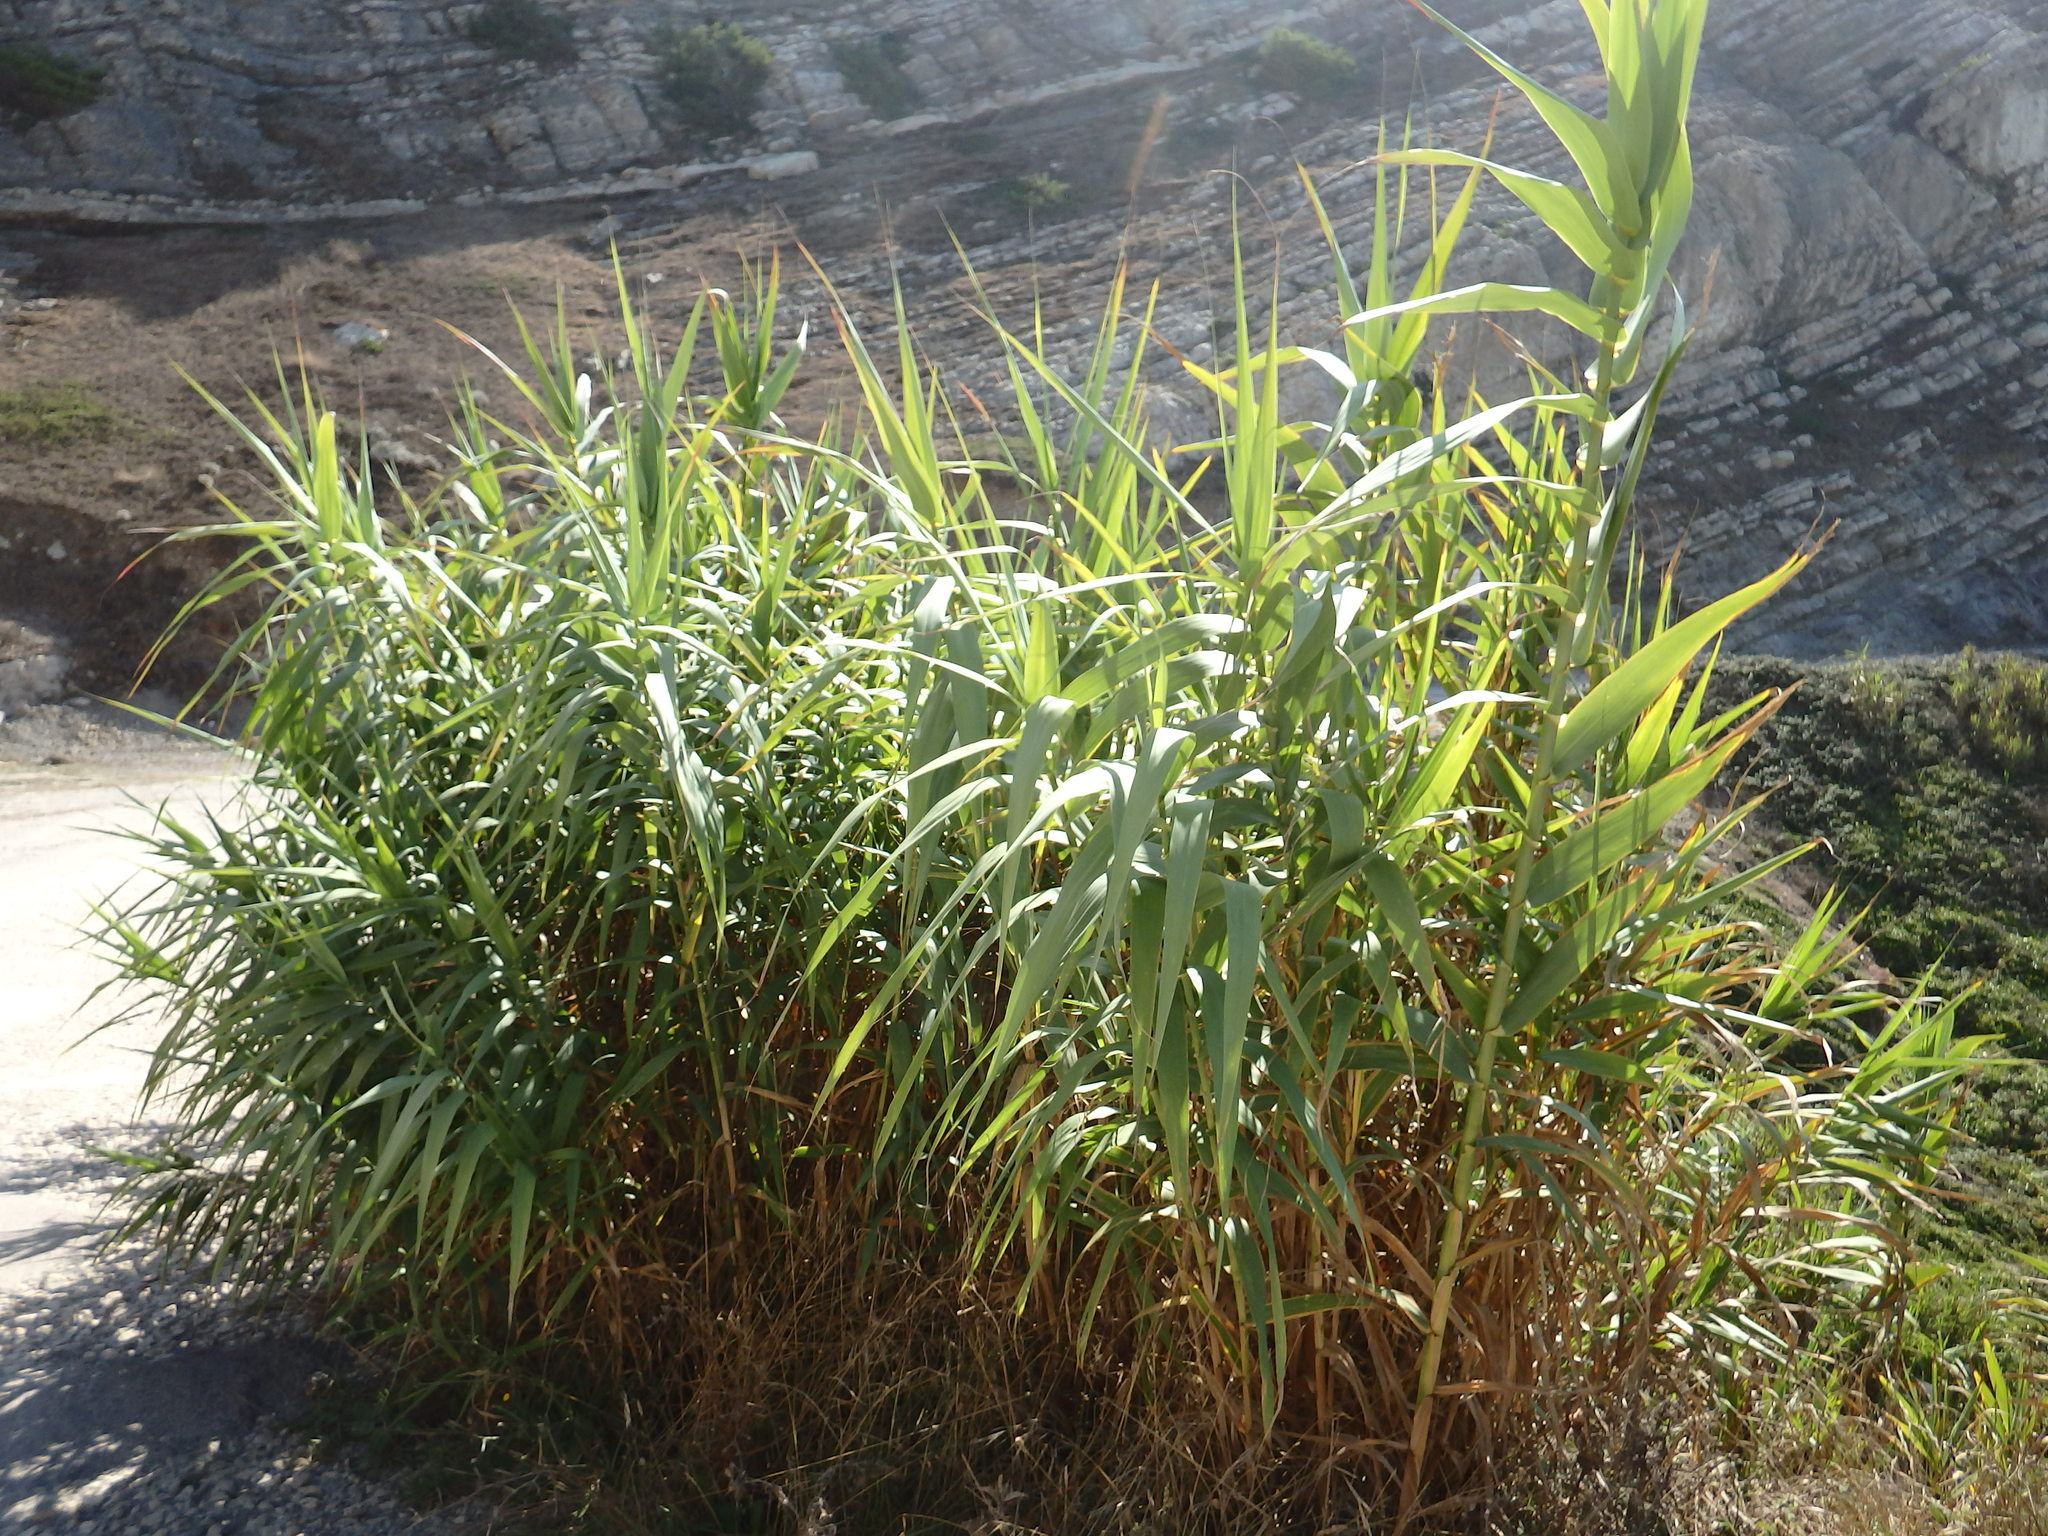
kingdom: Plantae
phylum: Tracheophyta
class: Liliopsida
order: Poales
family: Poaceae
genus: Arundo
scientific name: Arundo donax
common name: Giant reed
